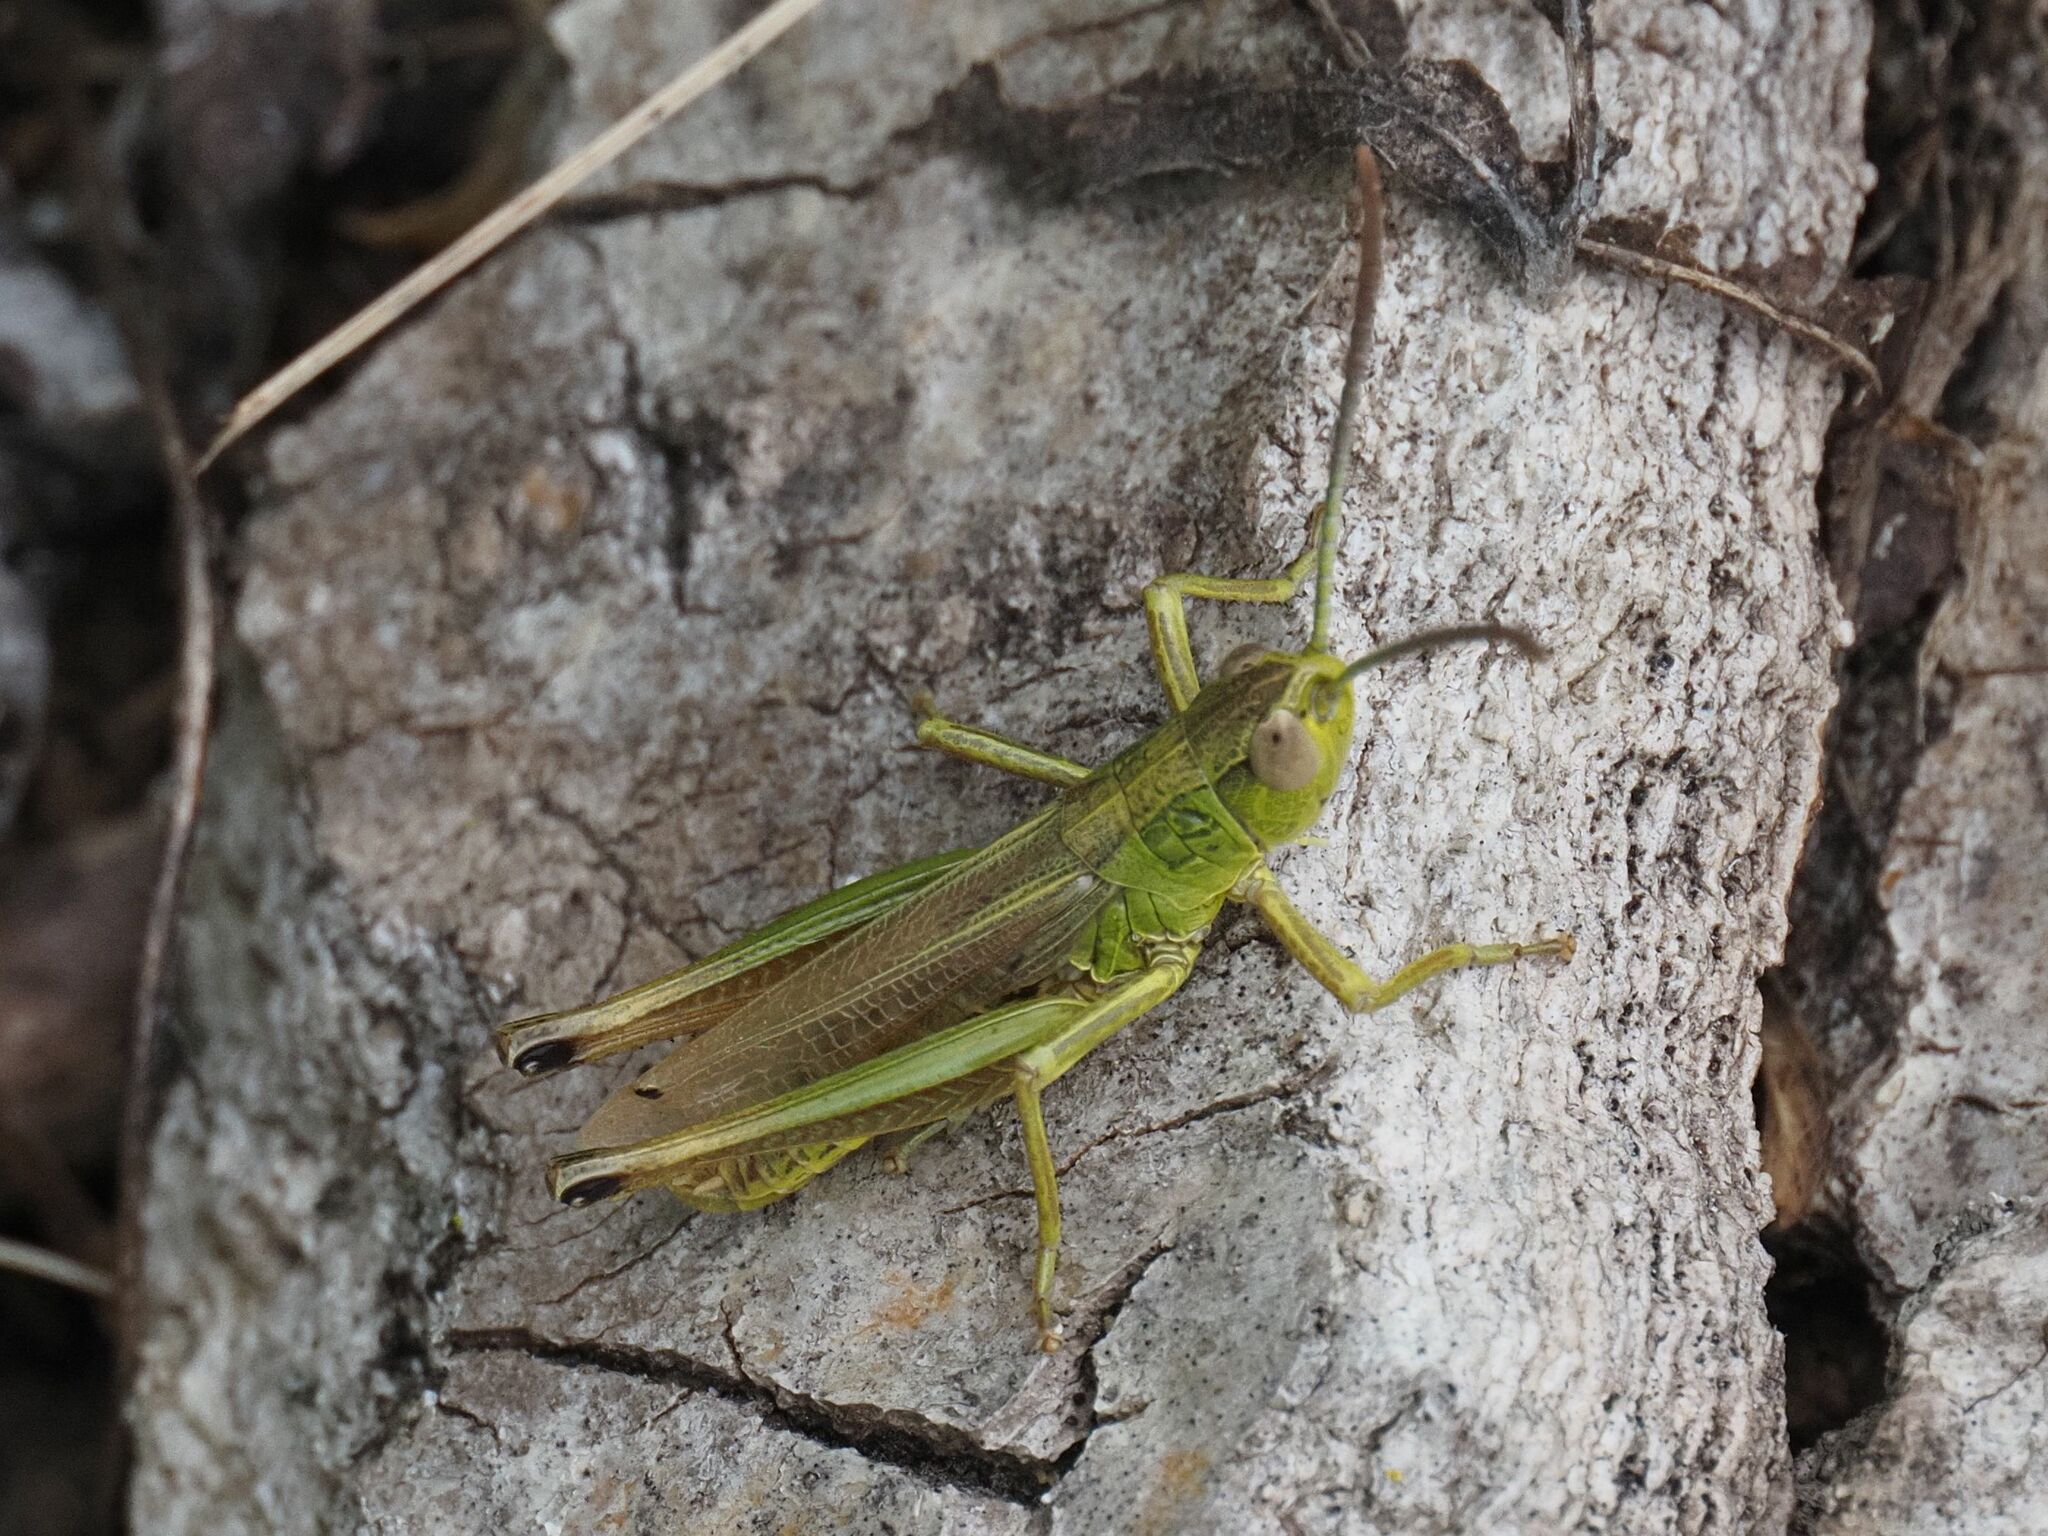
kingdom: Animalia
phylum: Arthropoda
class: Insecta
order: Orthoptera
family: Acrididae
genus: Pseudochorthippus
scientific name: Pseudochorthippus parallelus
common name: Meadow grasshopper
